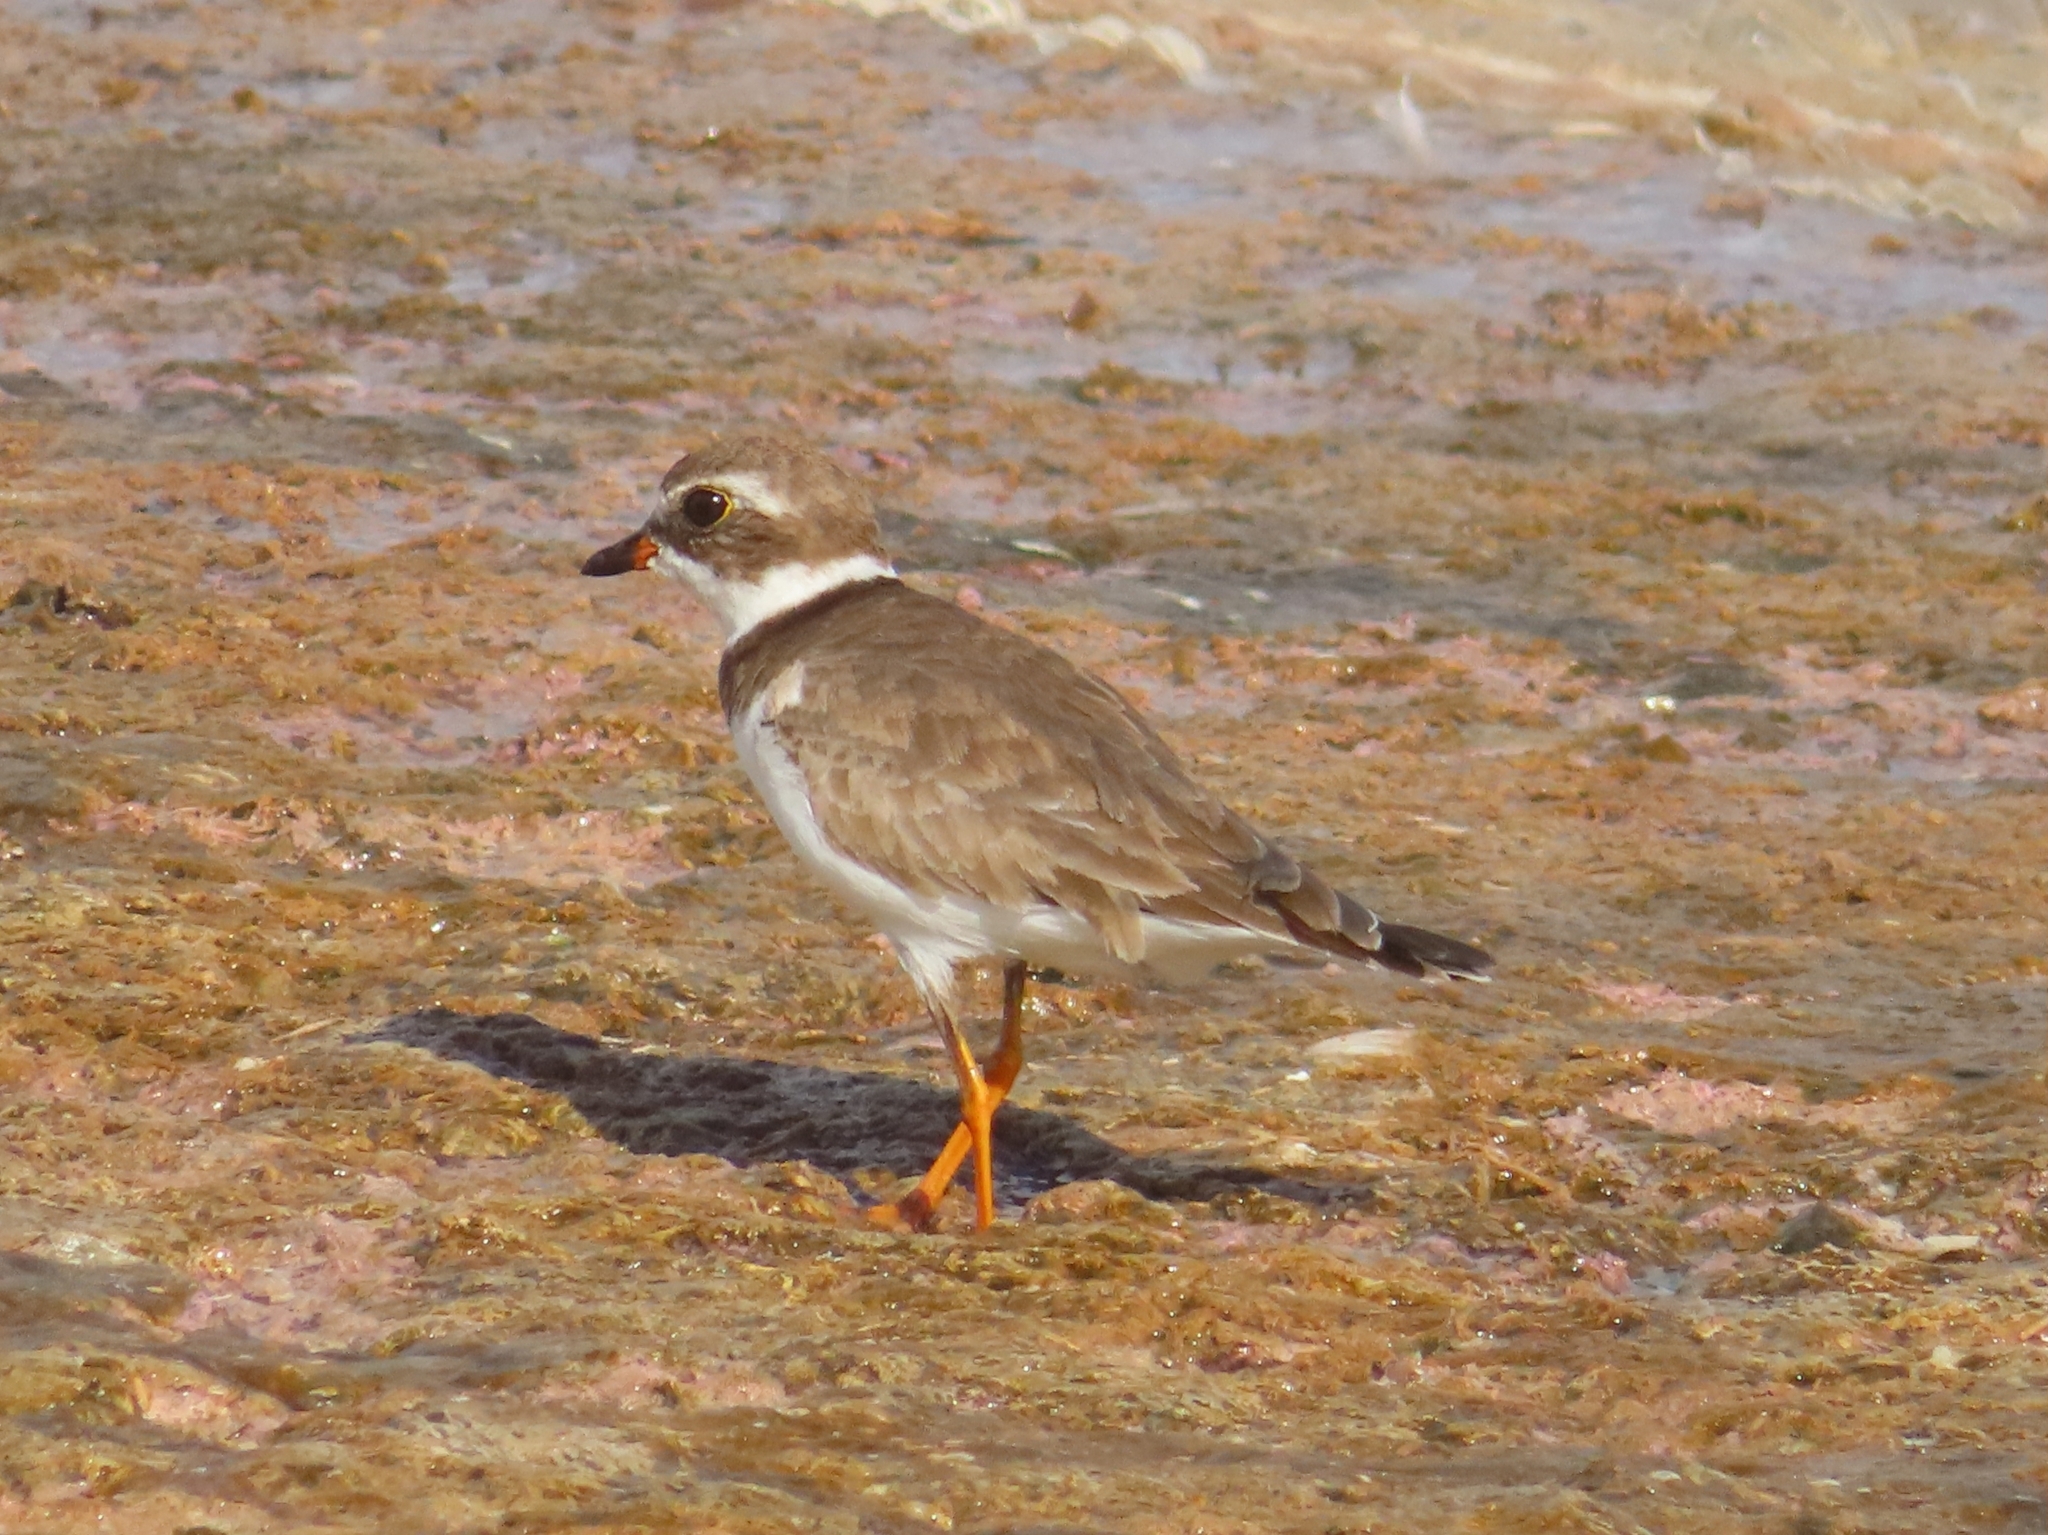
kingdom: Animalia
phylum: Chordata
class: Aves
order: Charadriiformes
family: Charadriidae
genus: Charadrius
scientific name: Charadrius semipalmatus
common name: Semipalmated plover
